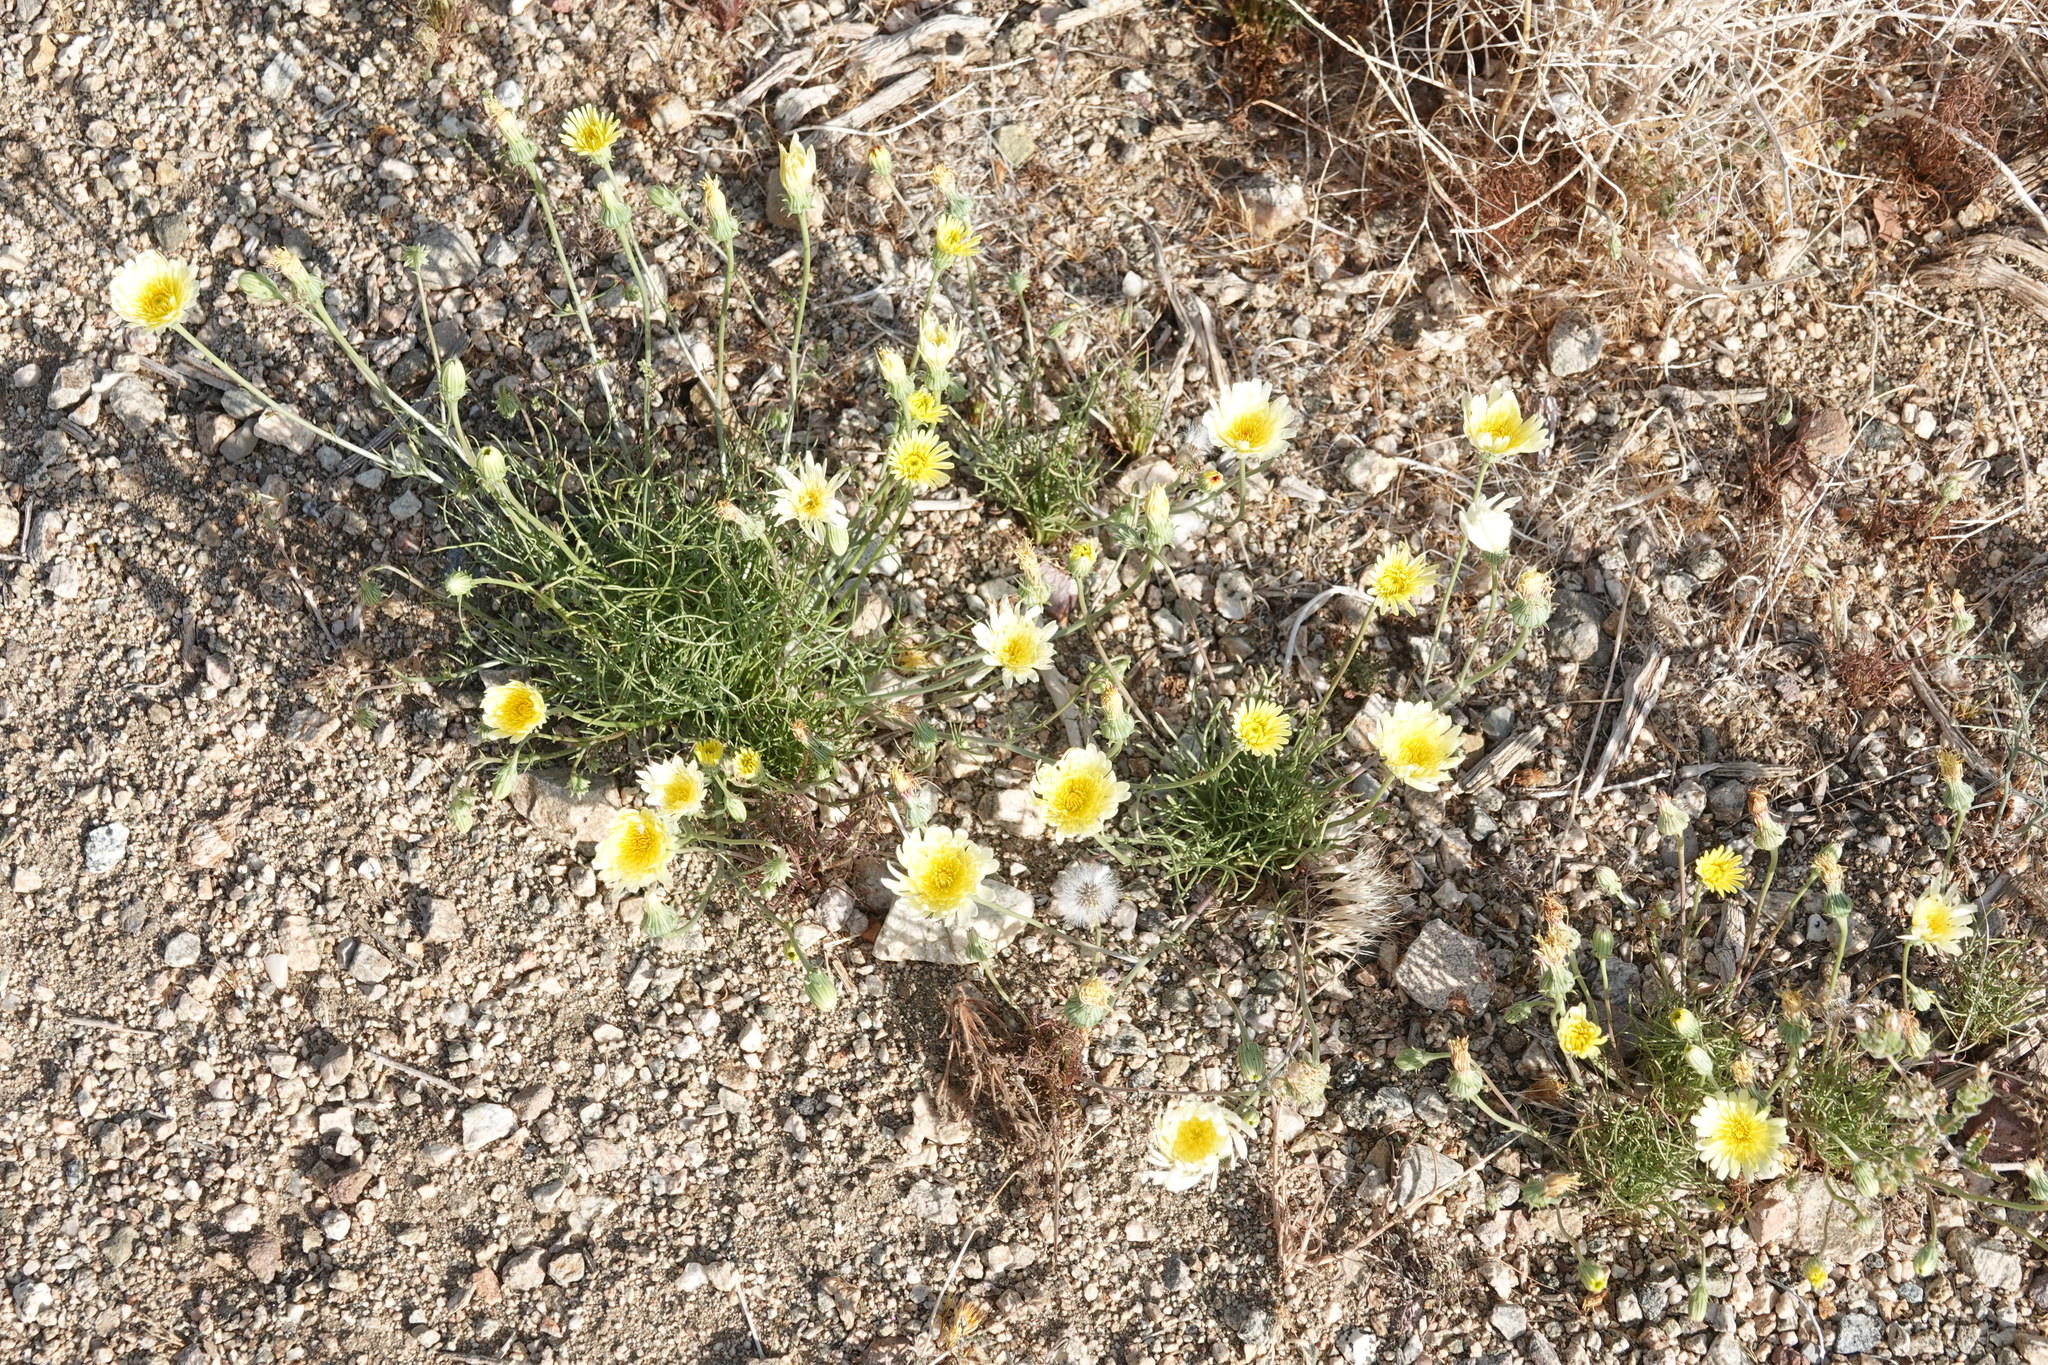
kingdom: Plantae
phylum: Tracheophyta
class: Magnoliopsida
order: Asterales
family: Asteraceae
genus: Malacothrix
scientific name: Malacothrix glabrata
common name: Smooth desert-dandelion
